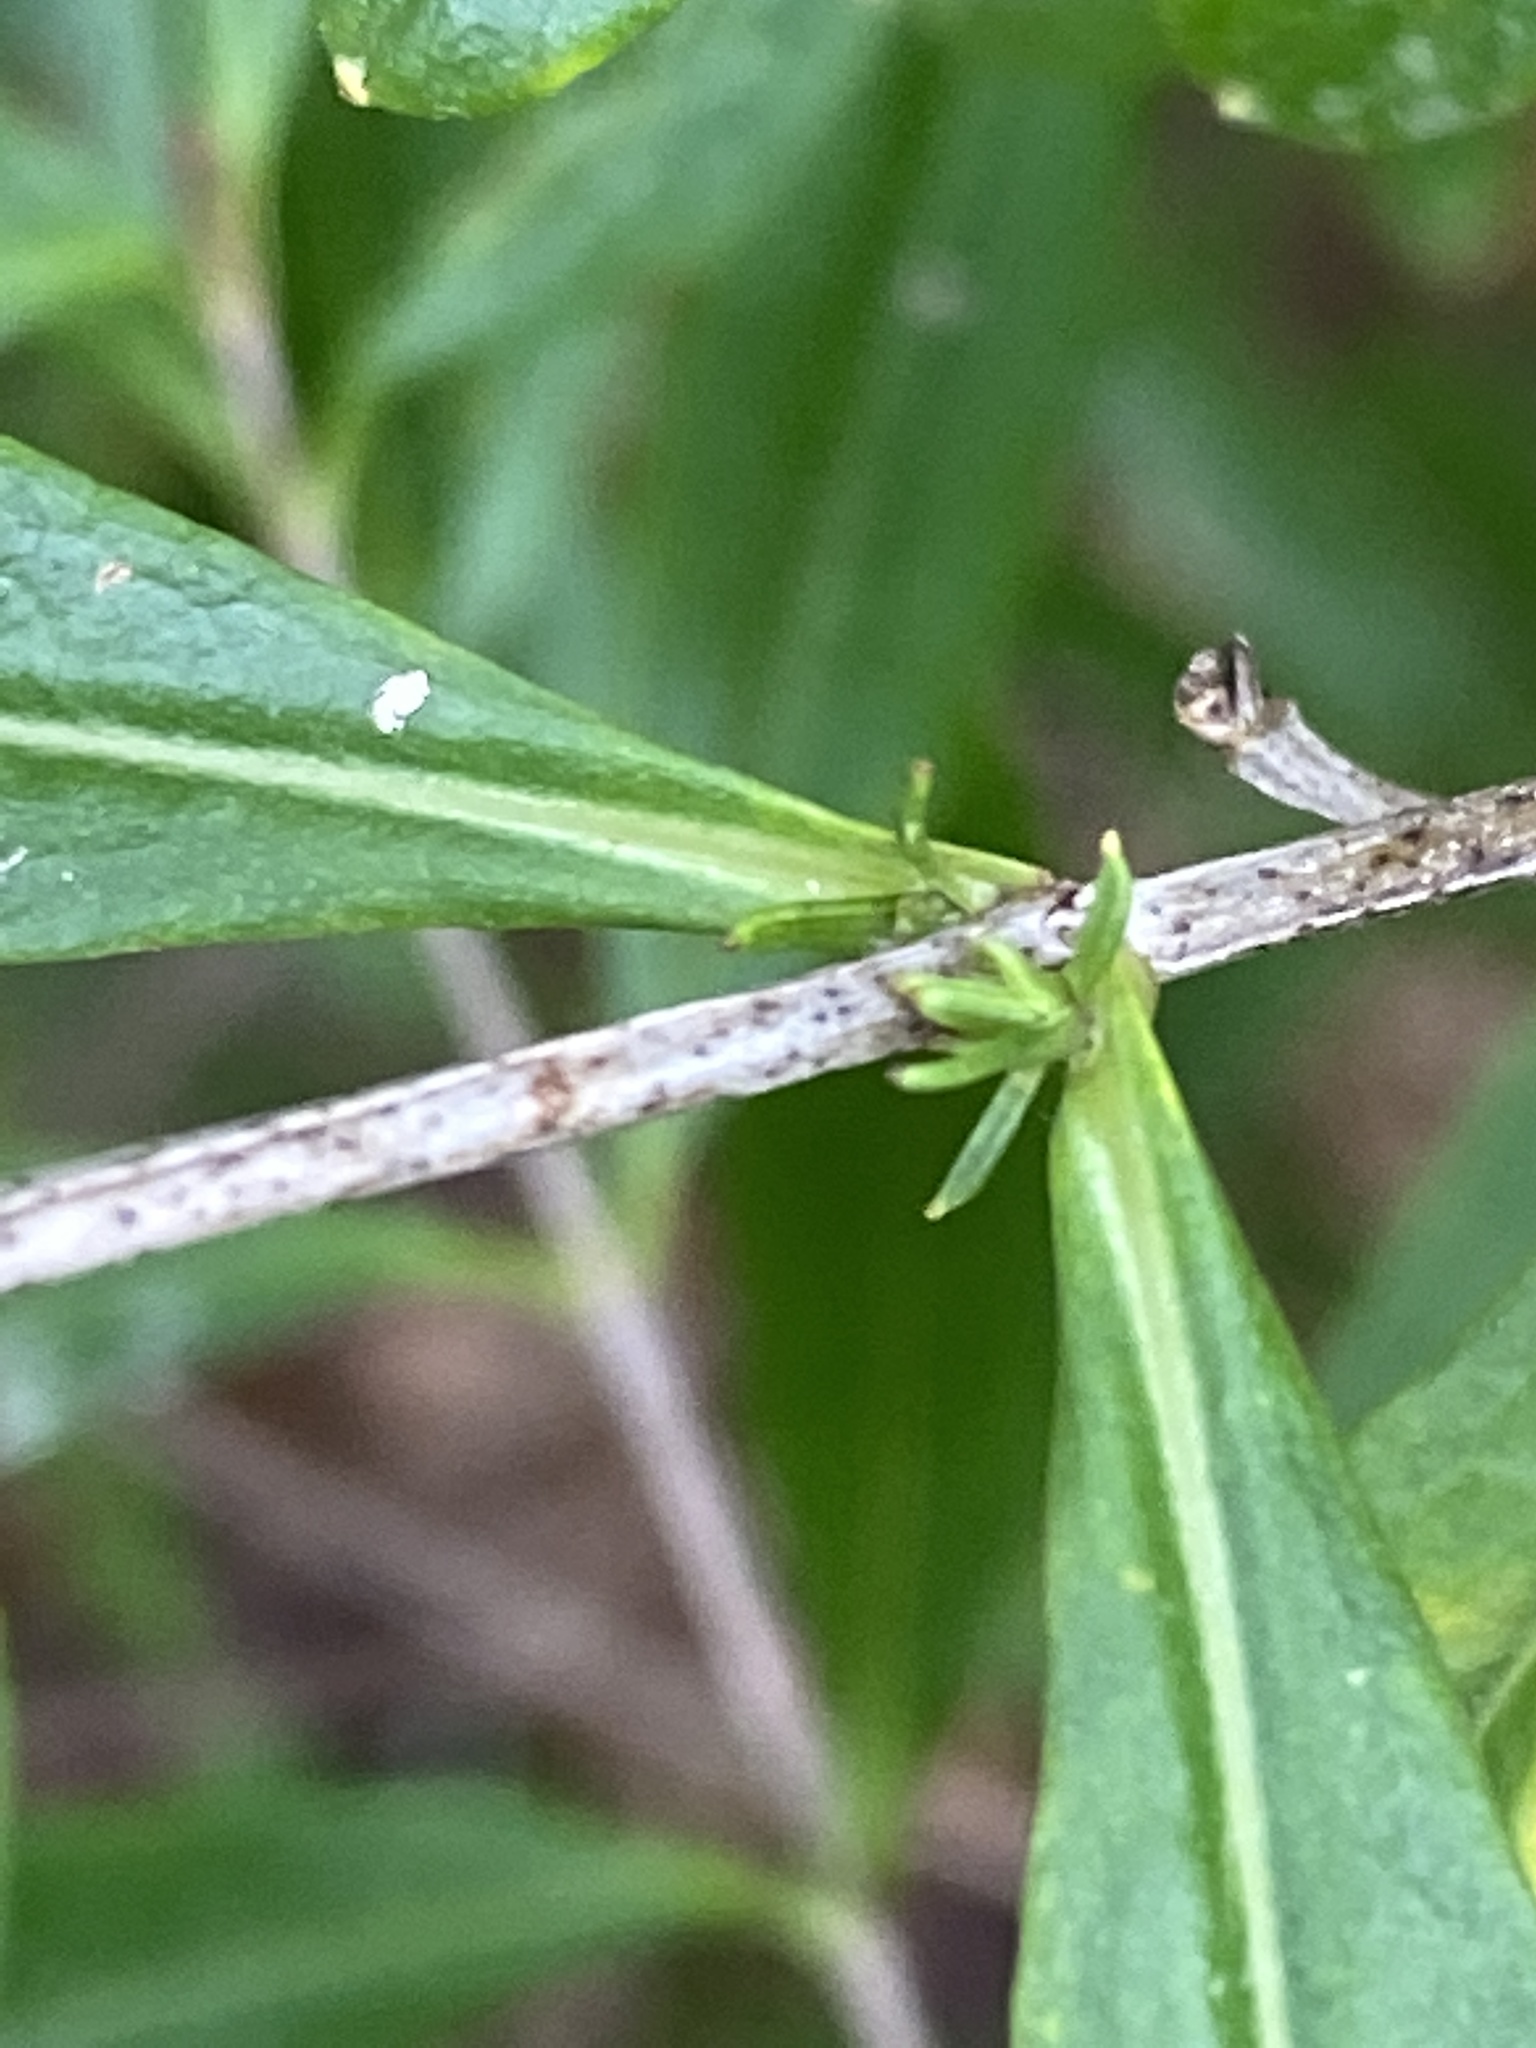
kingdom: Plantae
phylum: Tracheophyta
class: Magnoliopsida
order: Malpighiales
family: Hypericaceae
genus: Hypericum
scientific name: Hypericum prolificum
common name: Shrubby st. john's-wort
